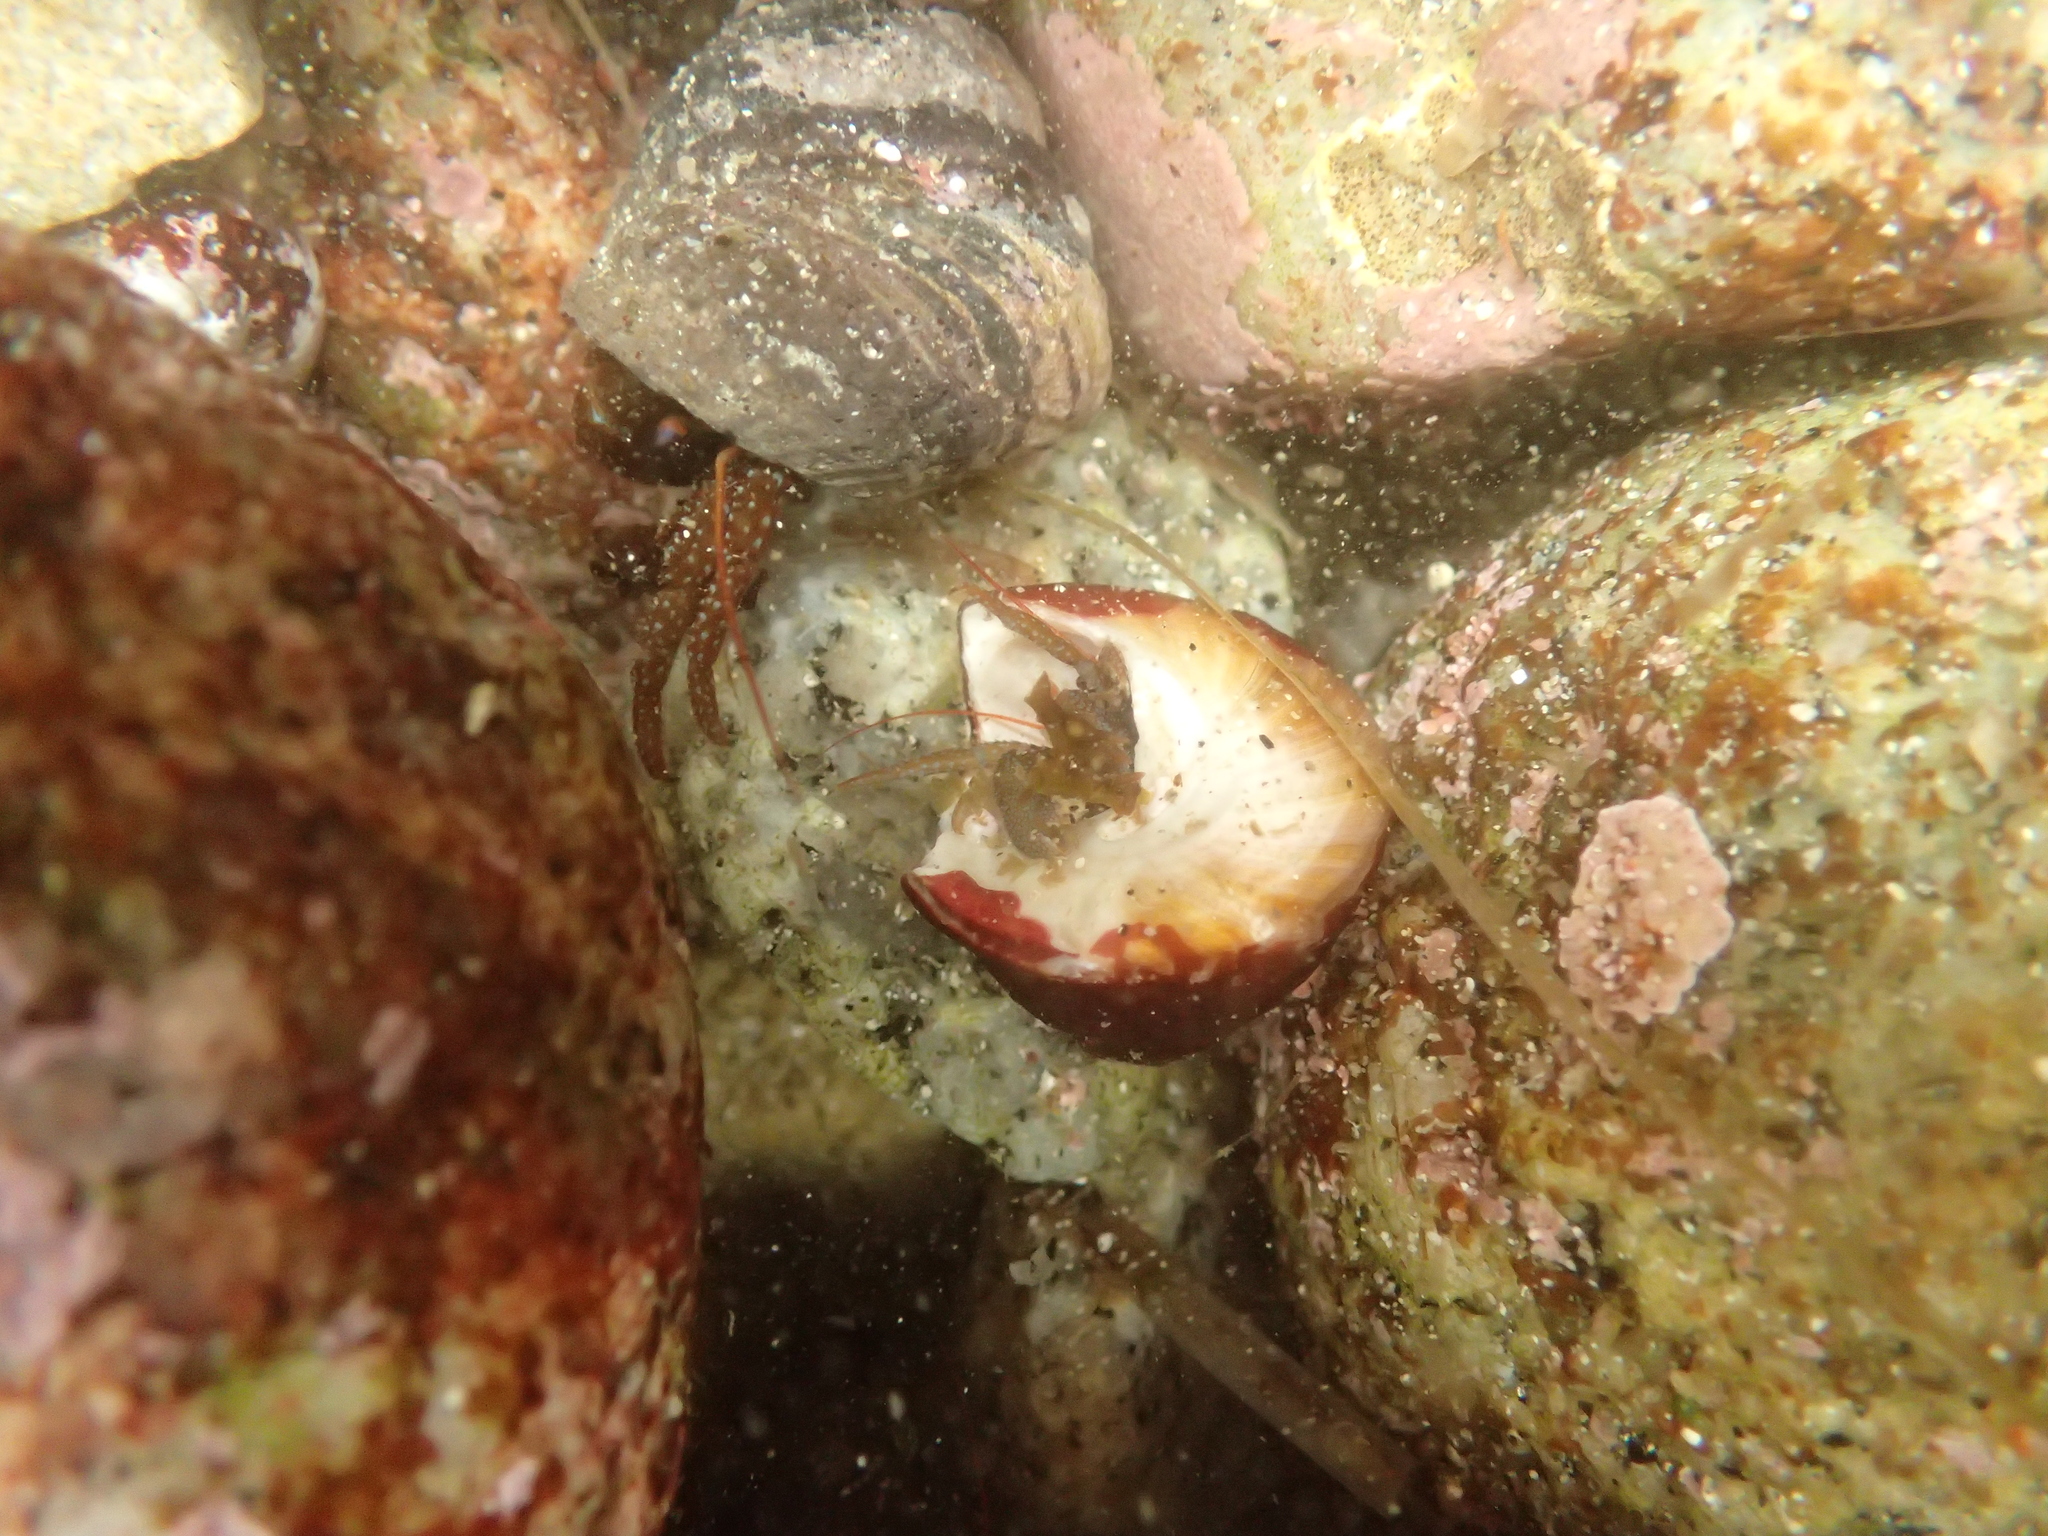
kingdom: Animalia
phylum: Arthropoda
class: Malacostraca
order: Decapoda
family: Paguridae
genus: Pagurus
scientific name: Pagurus granosimanus
